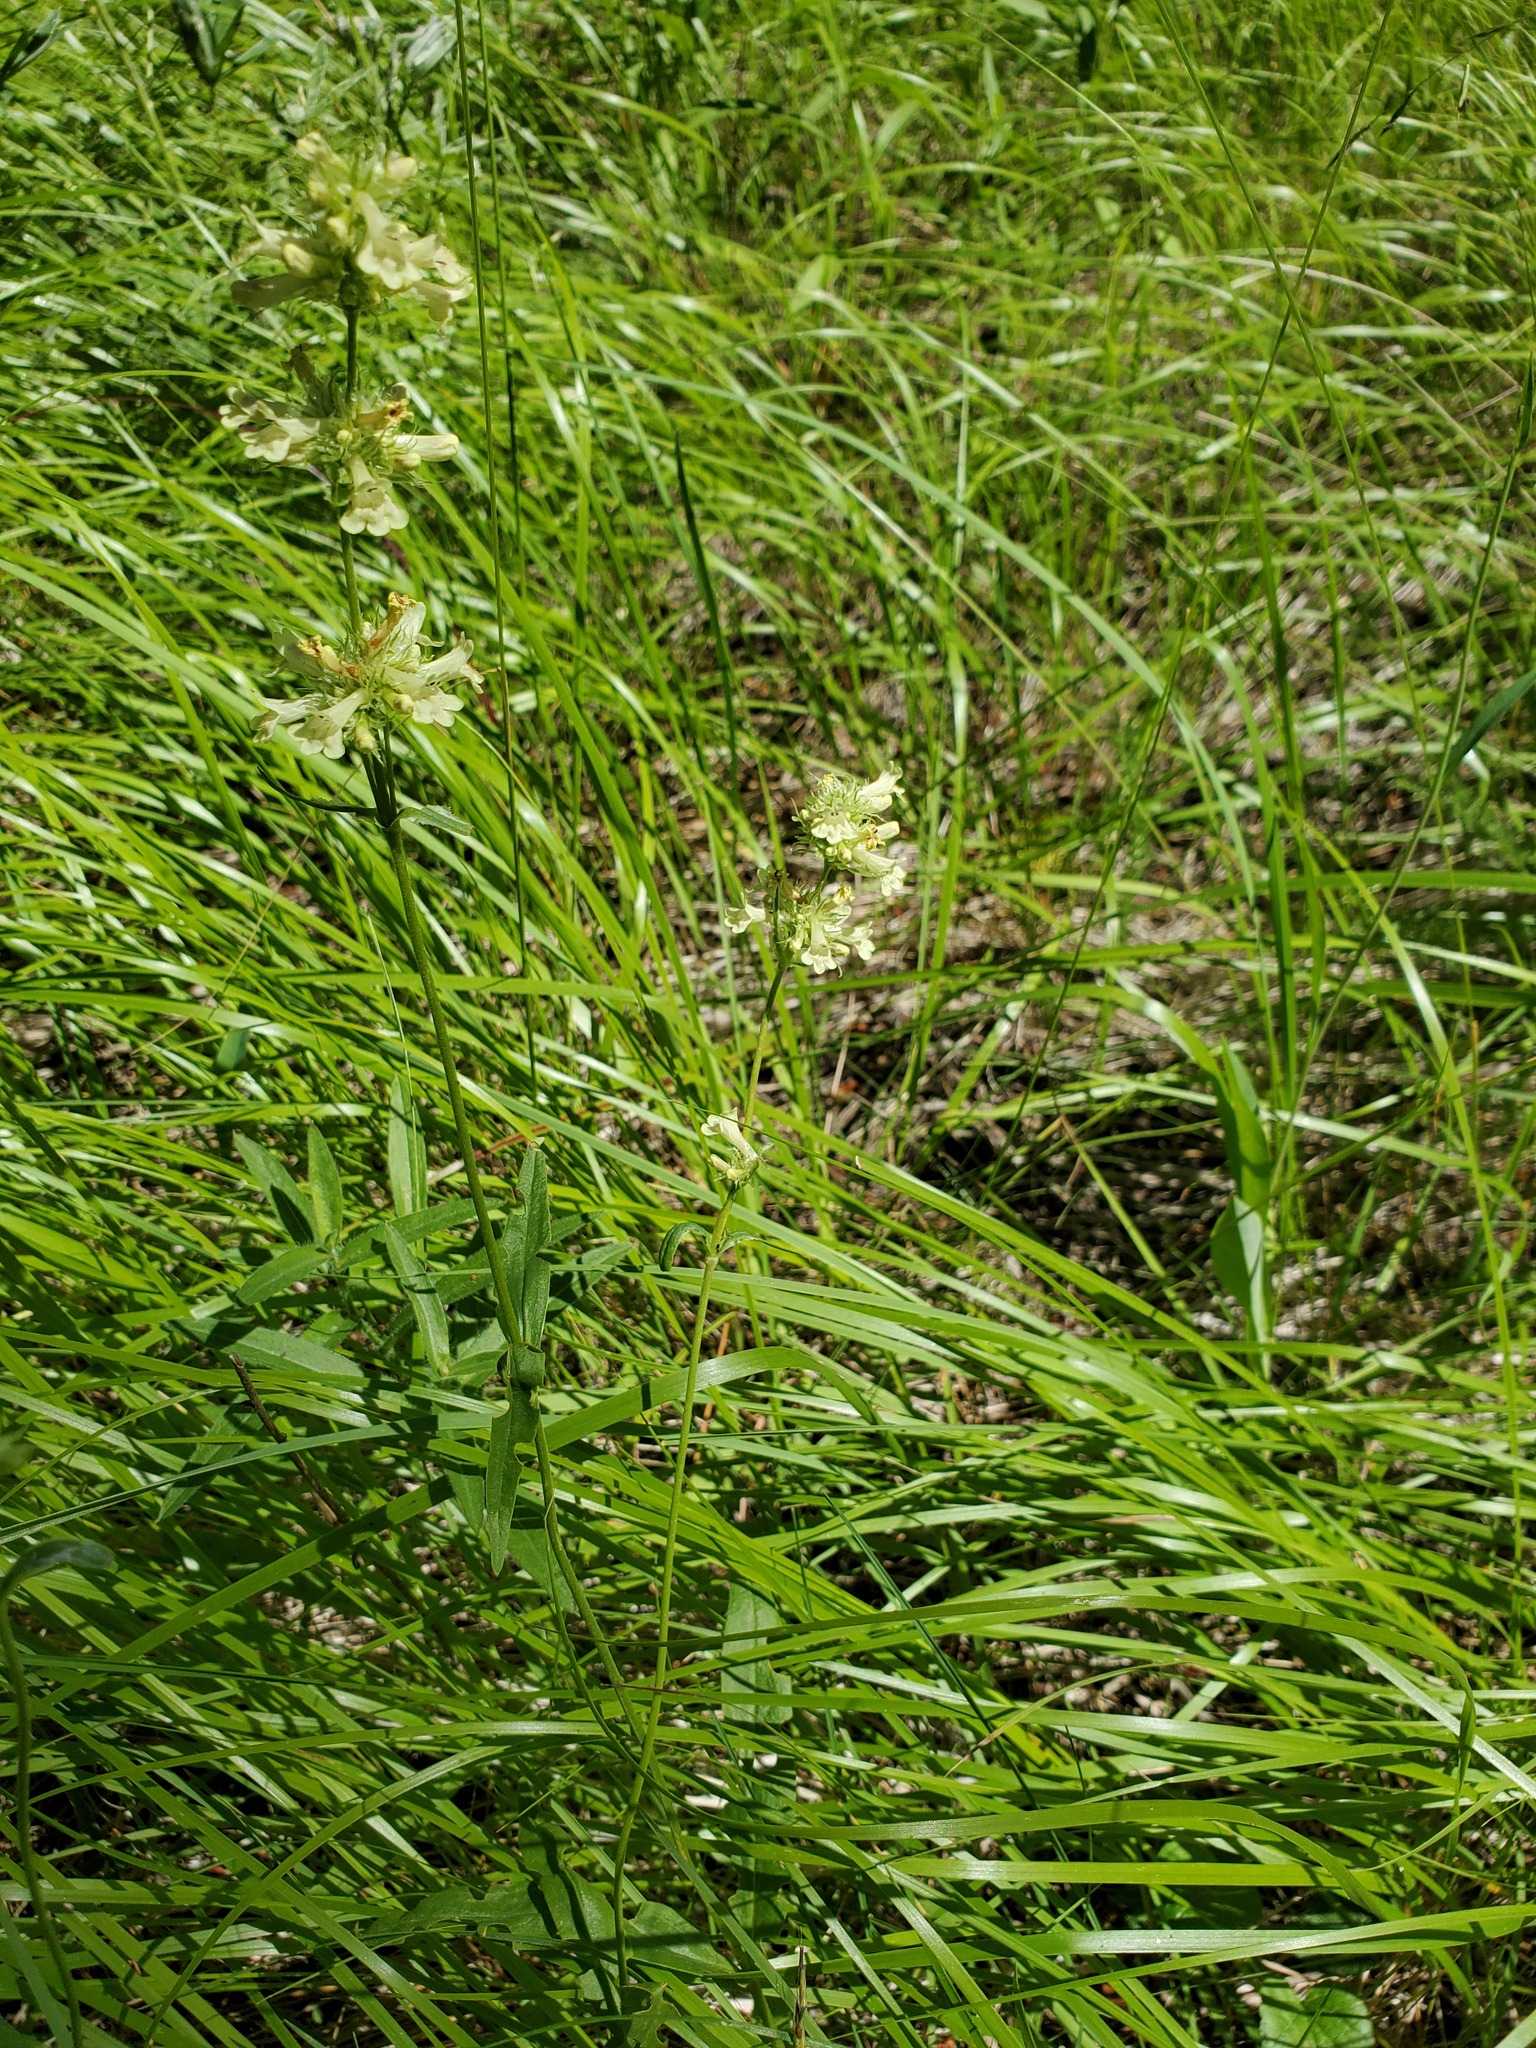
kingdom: Plantae
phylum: Tracheophyta
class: Magnoliopsida
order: Lamiales
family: Plantaginaceae
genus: Penstemon
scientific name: Penstemon confertus
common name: Lesser yellow beardtongue
